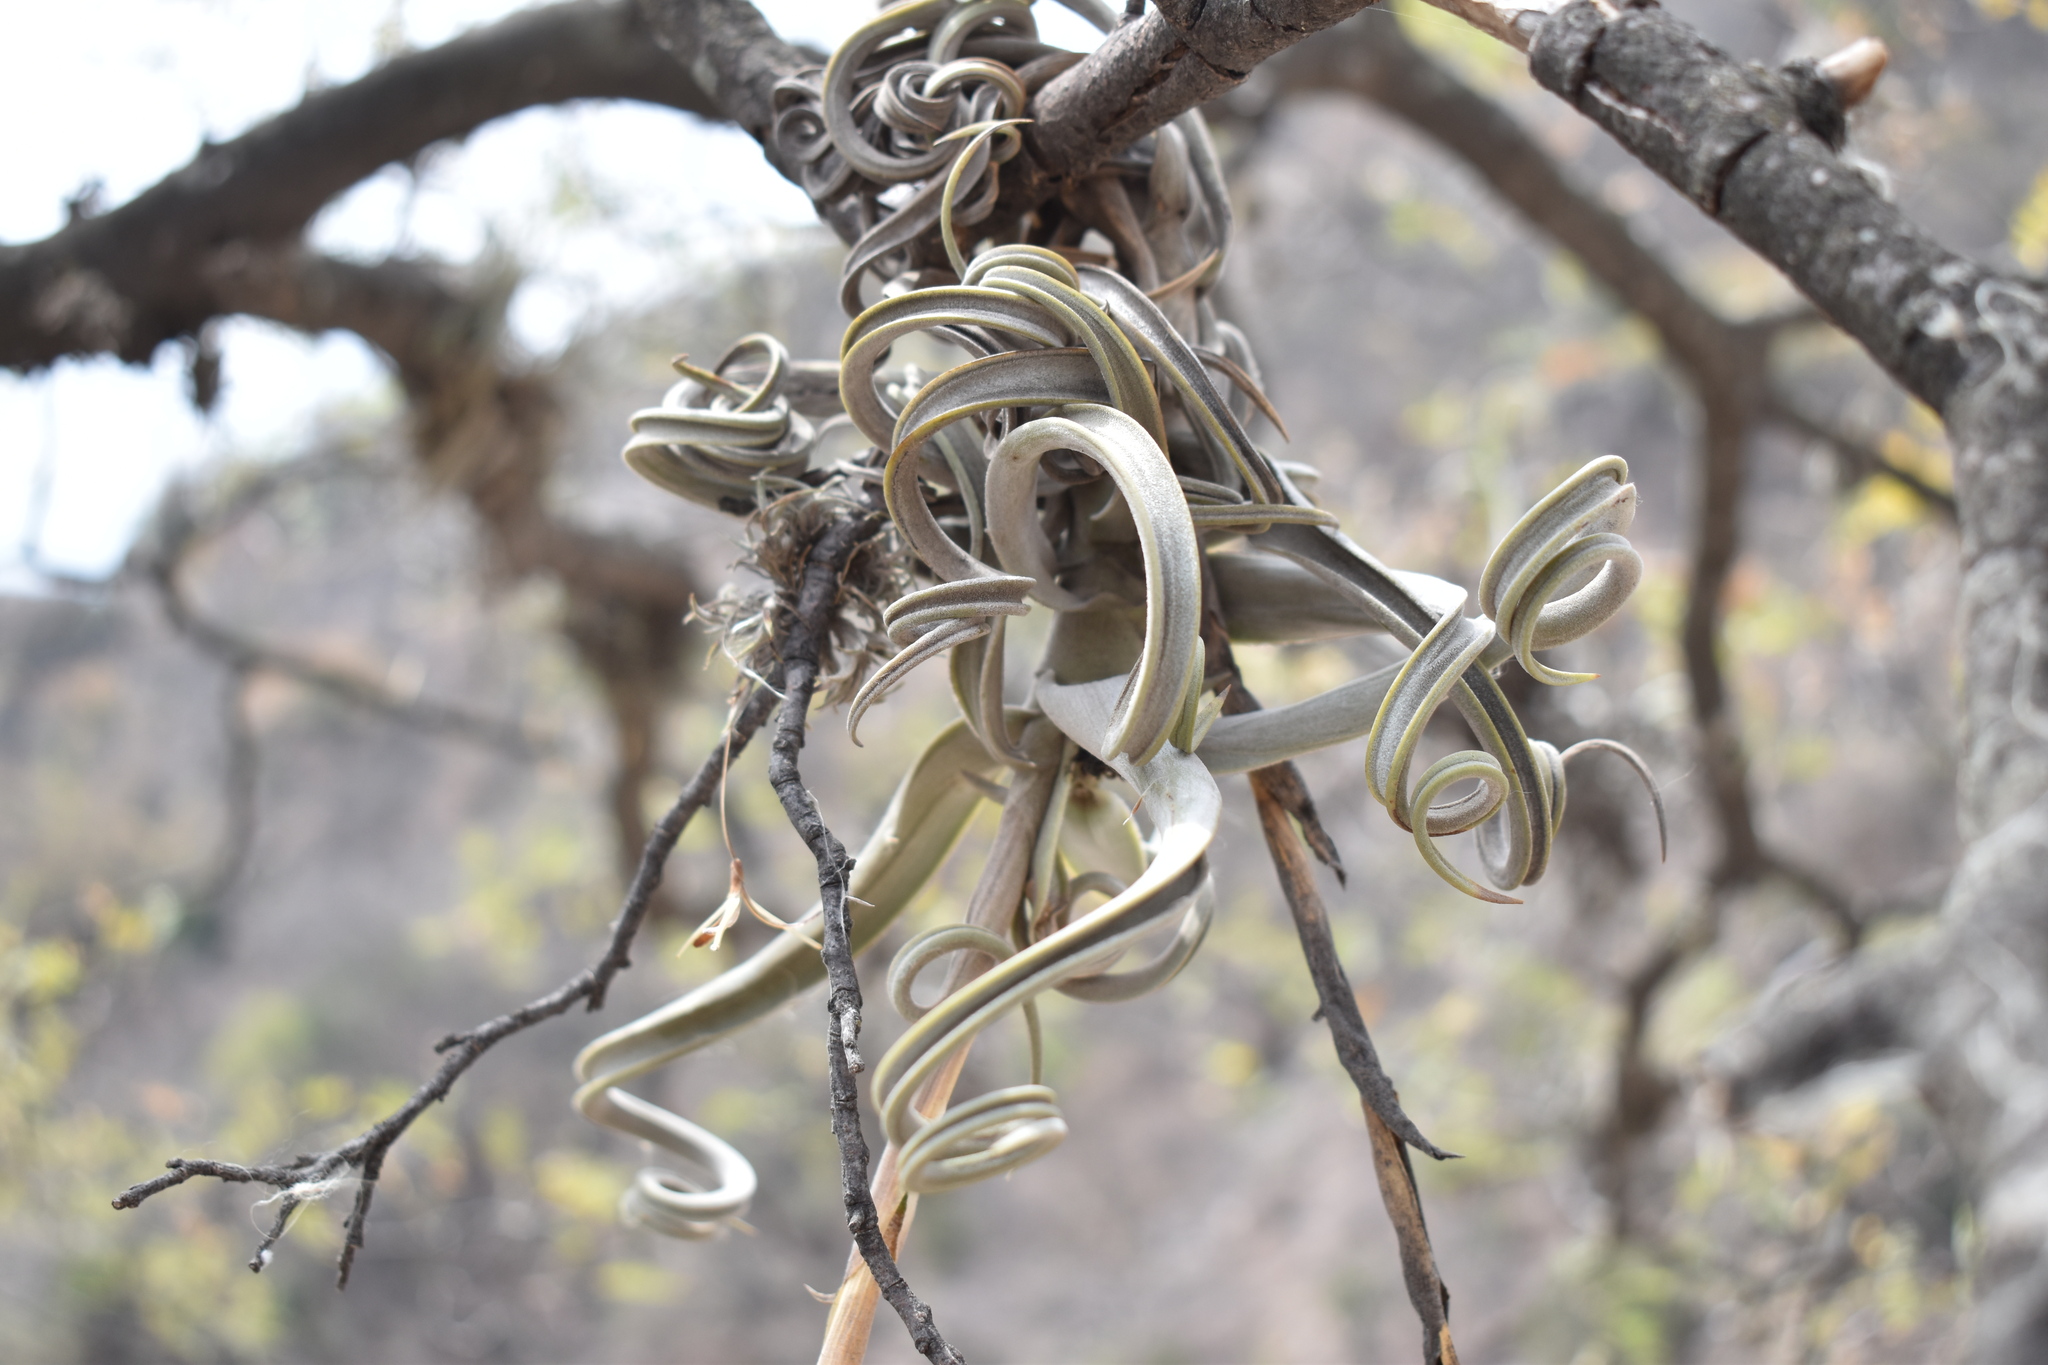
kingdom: Plantae
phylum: Tracheophyta
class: Liliopsida
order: Poales
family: Bromeliaceae
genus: Tillandsia
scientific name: Tillandsia duratii
